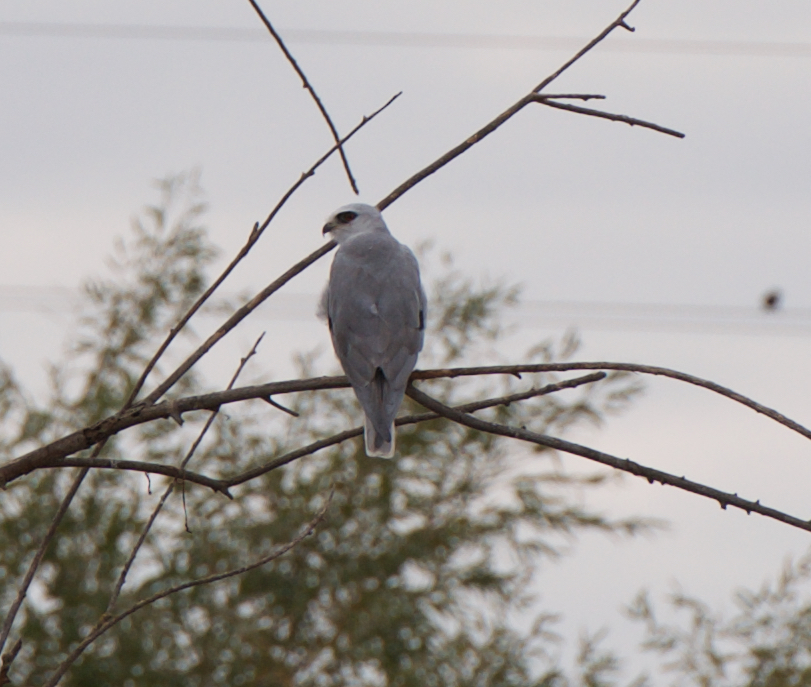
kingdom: Animalia
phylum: Chordata
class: Aves
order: Accipitriformes
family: Accipitridae
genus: Elanus
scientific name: Elanus leucurus
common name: White-tailed kite
